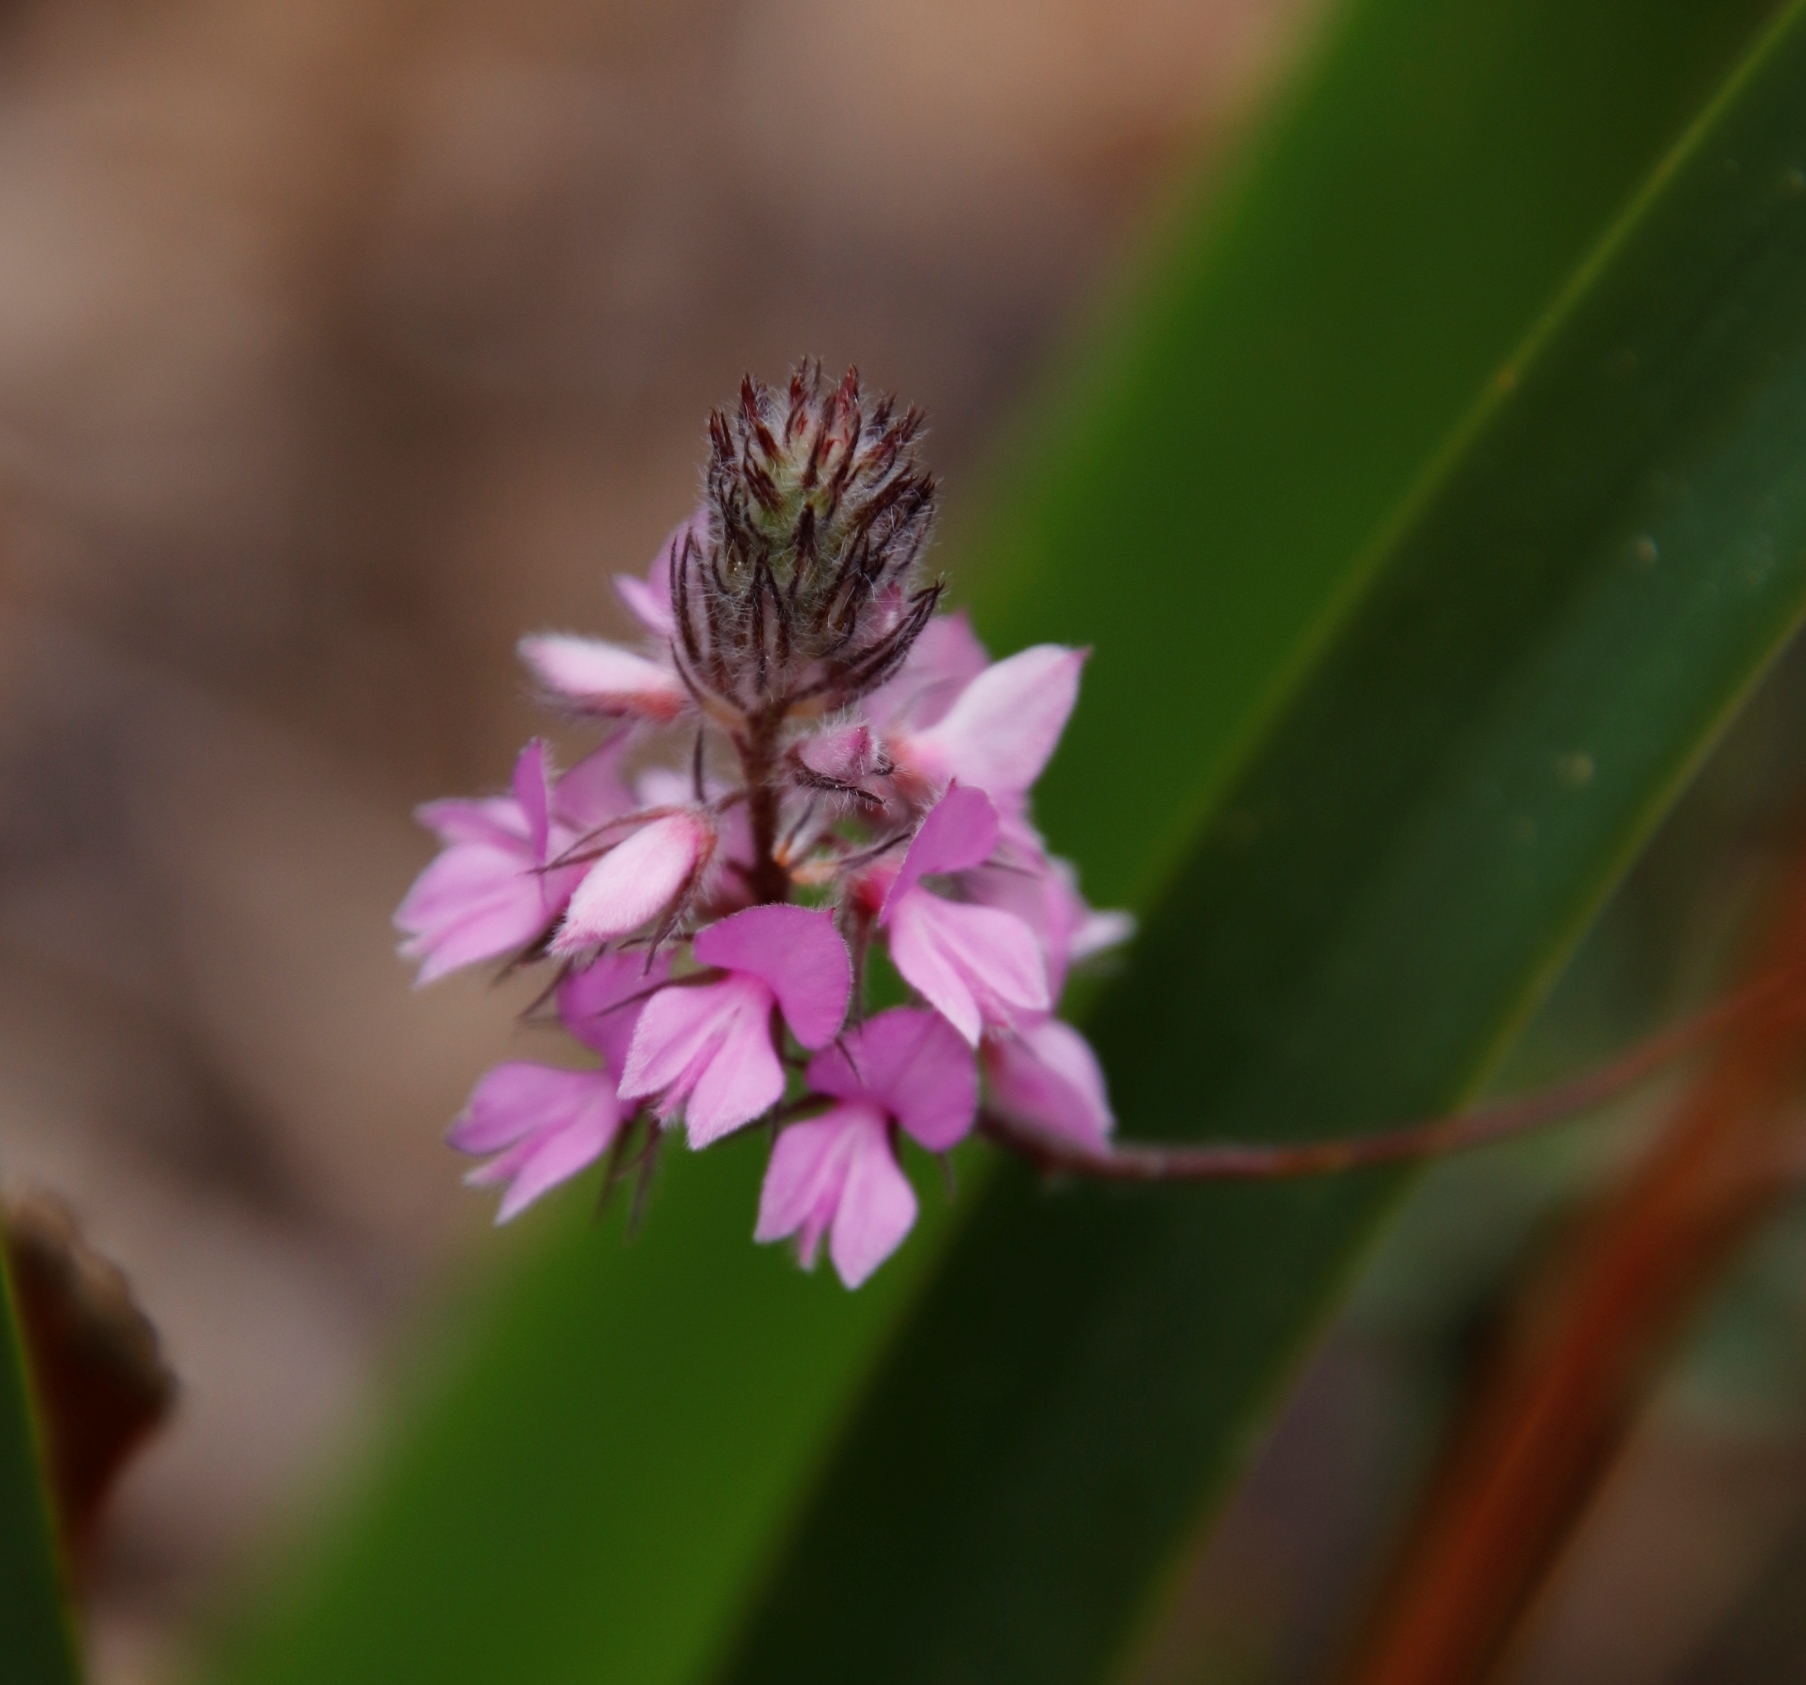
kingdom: Plantae
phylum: Tracheophyta
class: Magnoliopsida
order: Fabales
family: Fabaceae
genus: Indigofera
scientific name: Indigofera alopecuroides
